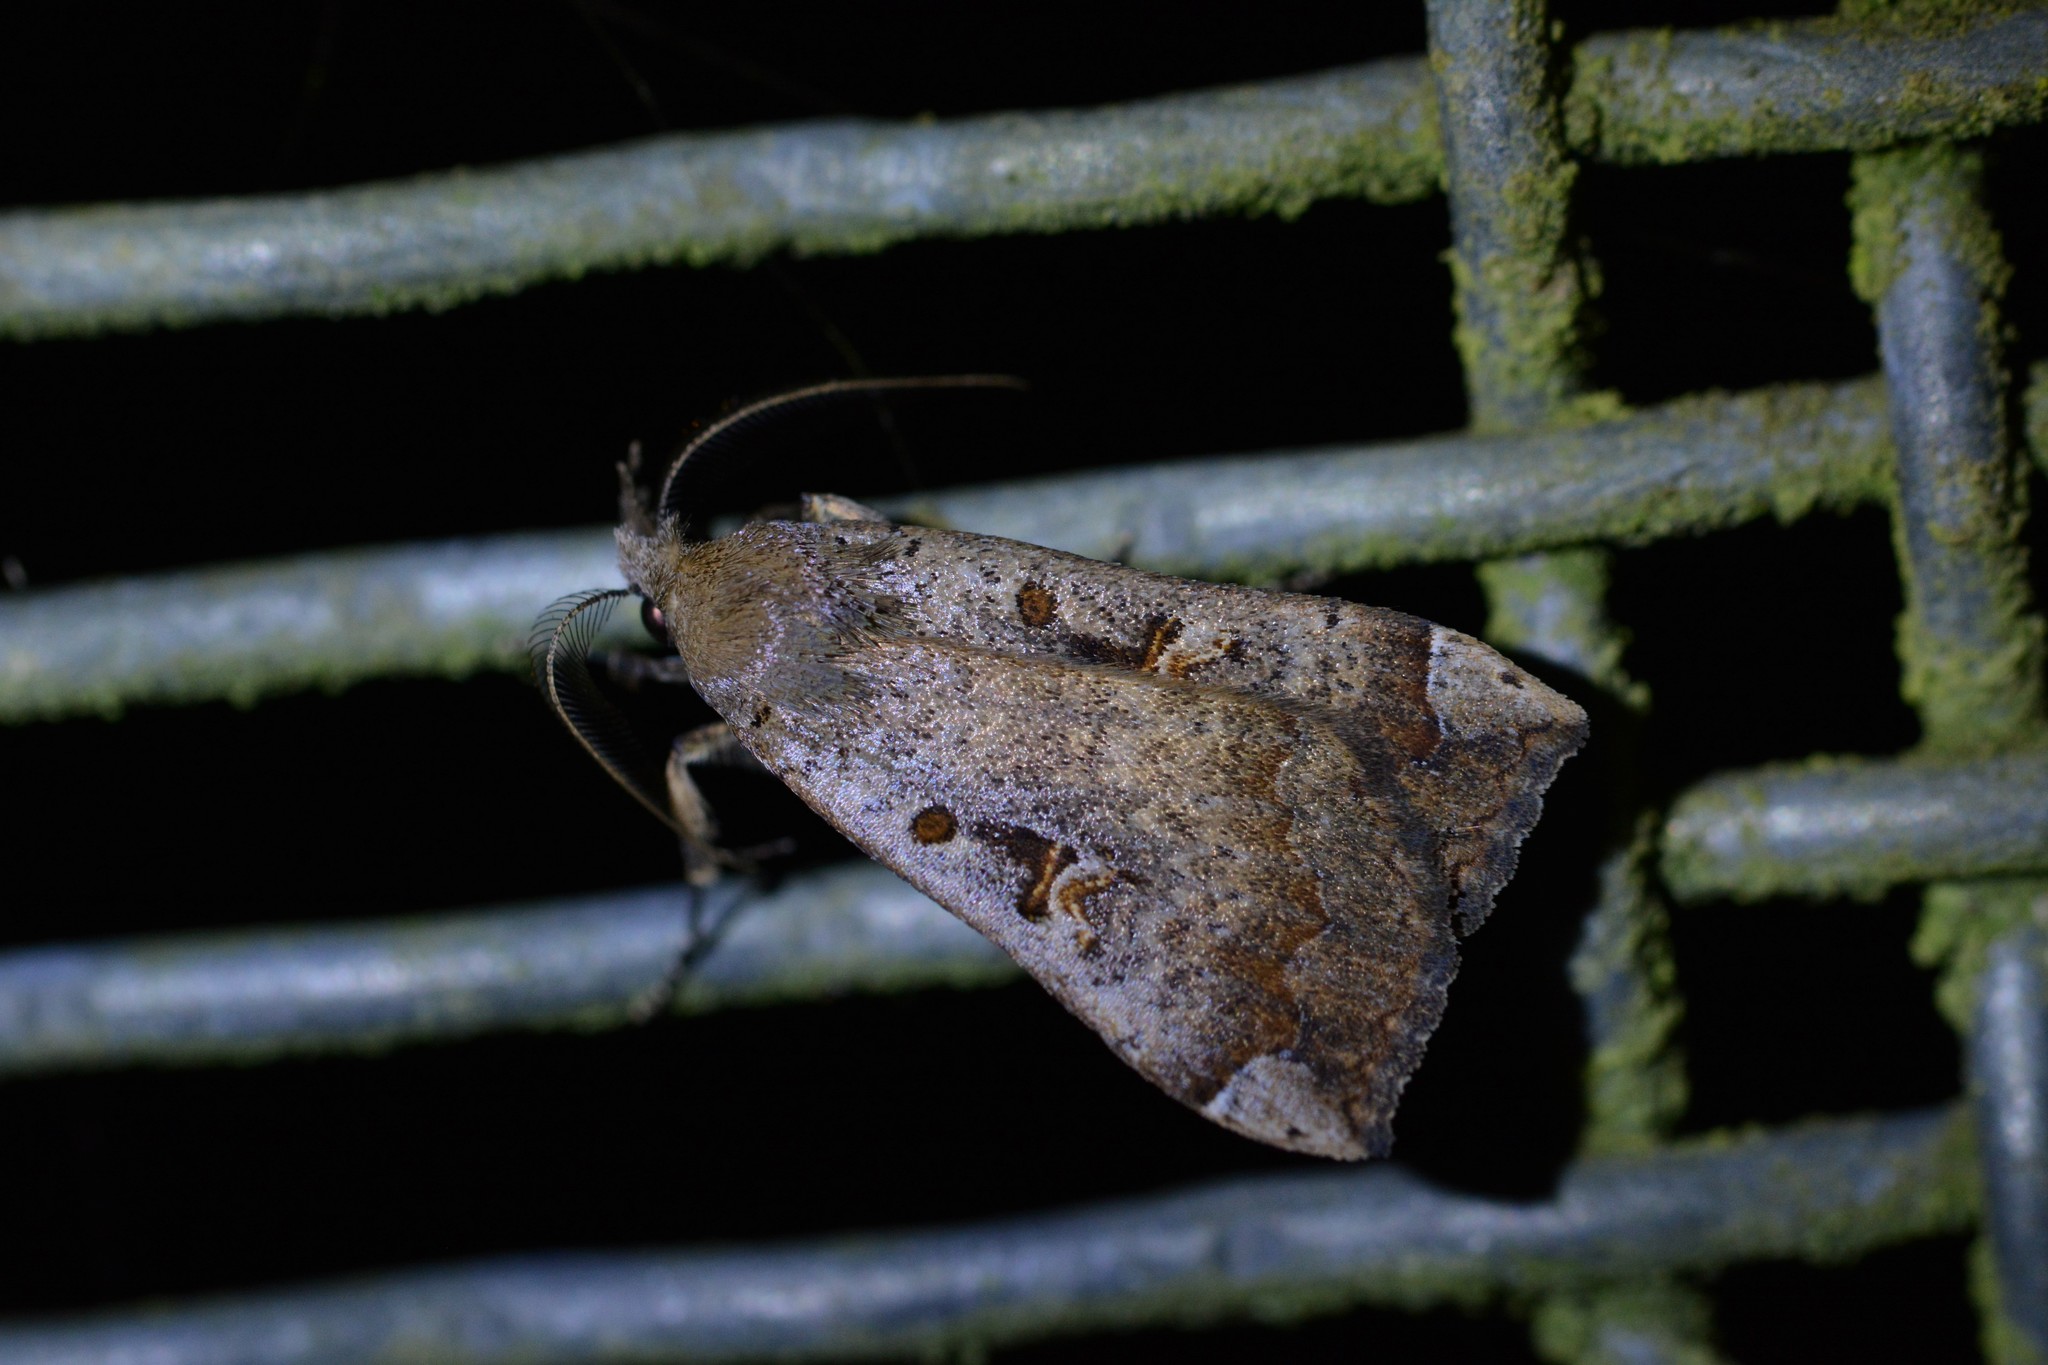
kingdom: Animalia
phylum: Arthropoda
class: Insecta
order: Lepidoptera
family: Erebidae
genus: Rhapsa
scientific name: Rhapsa scotosialis
